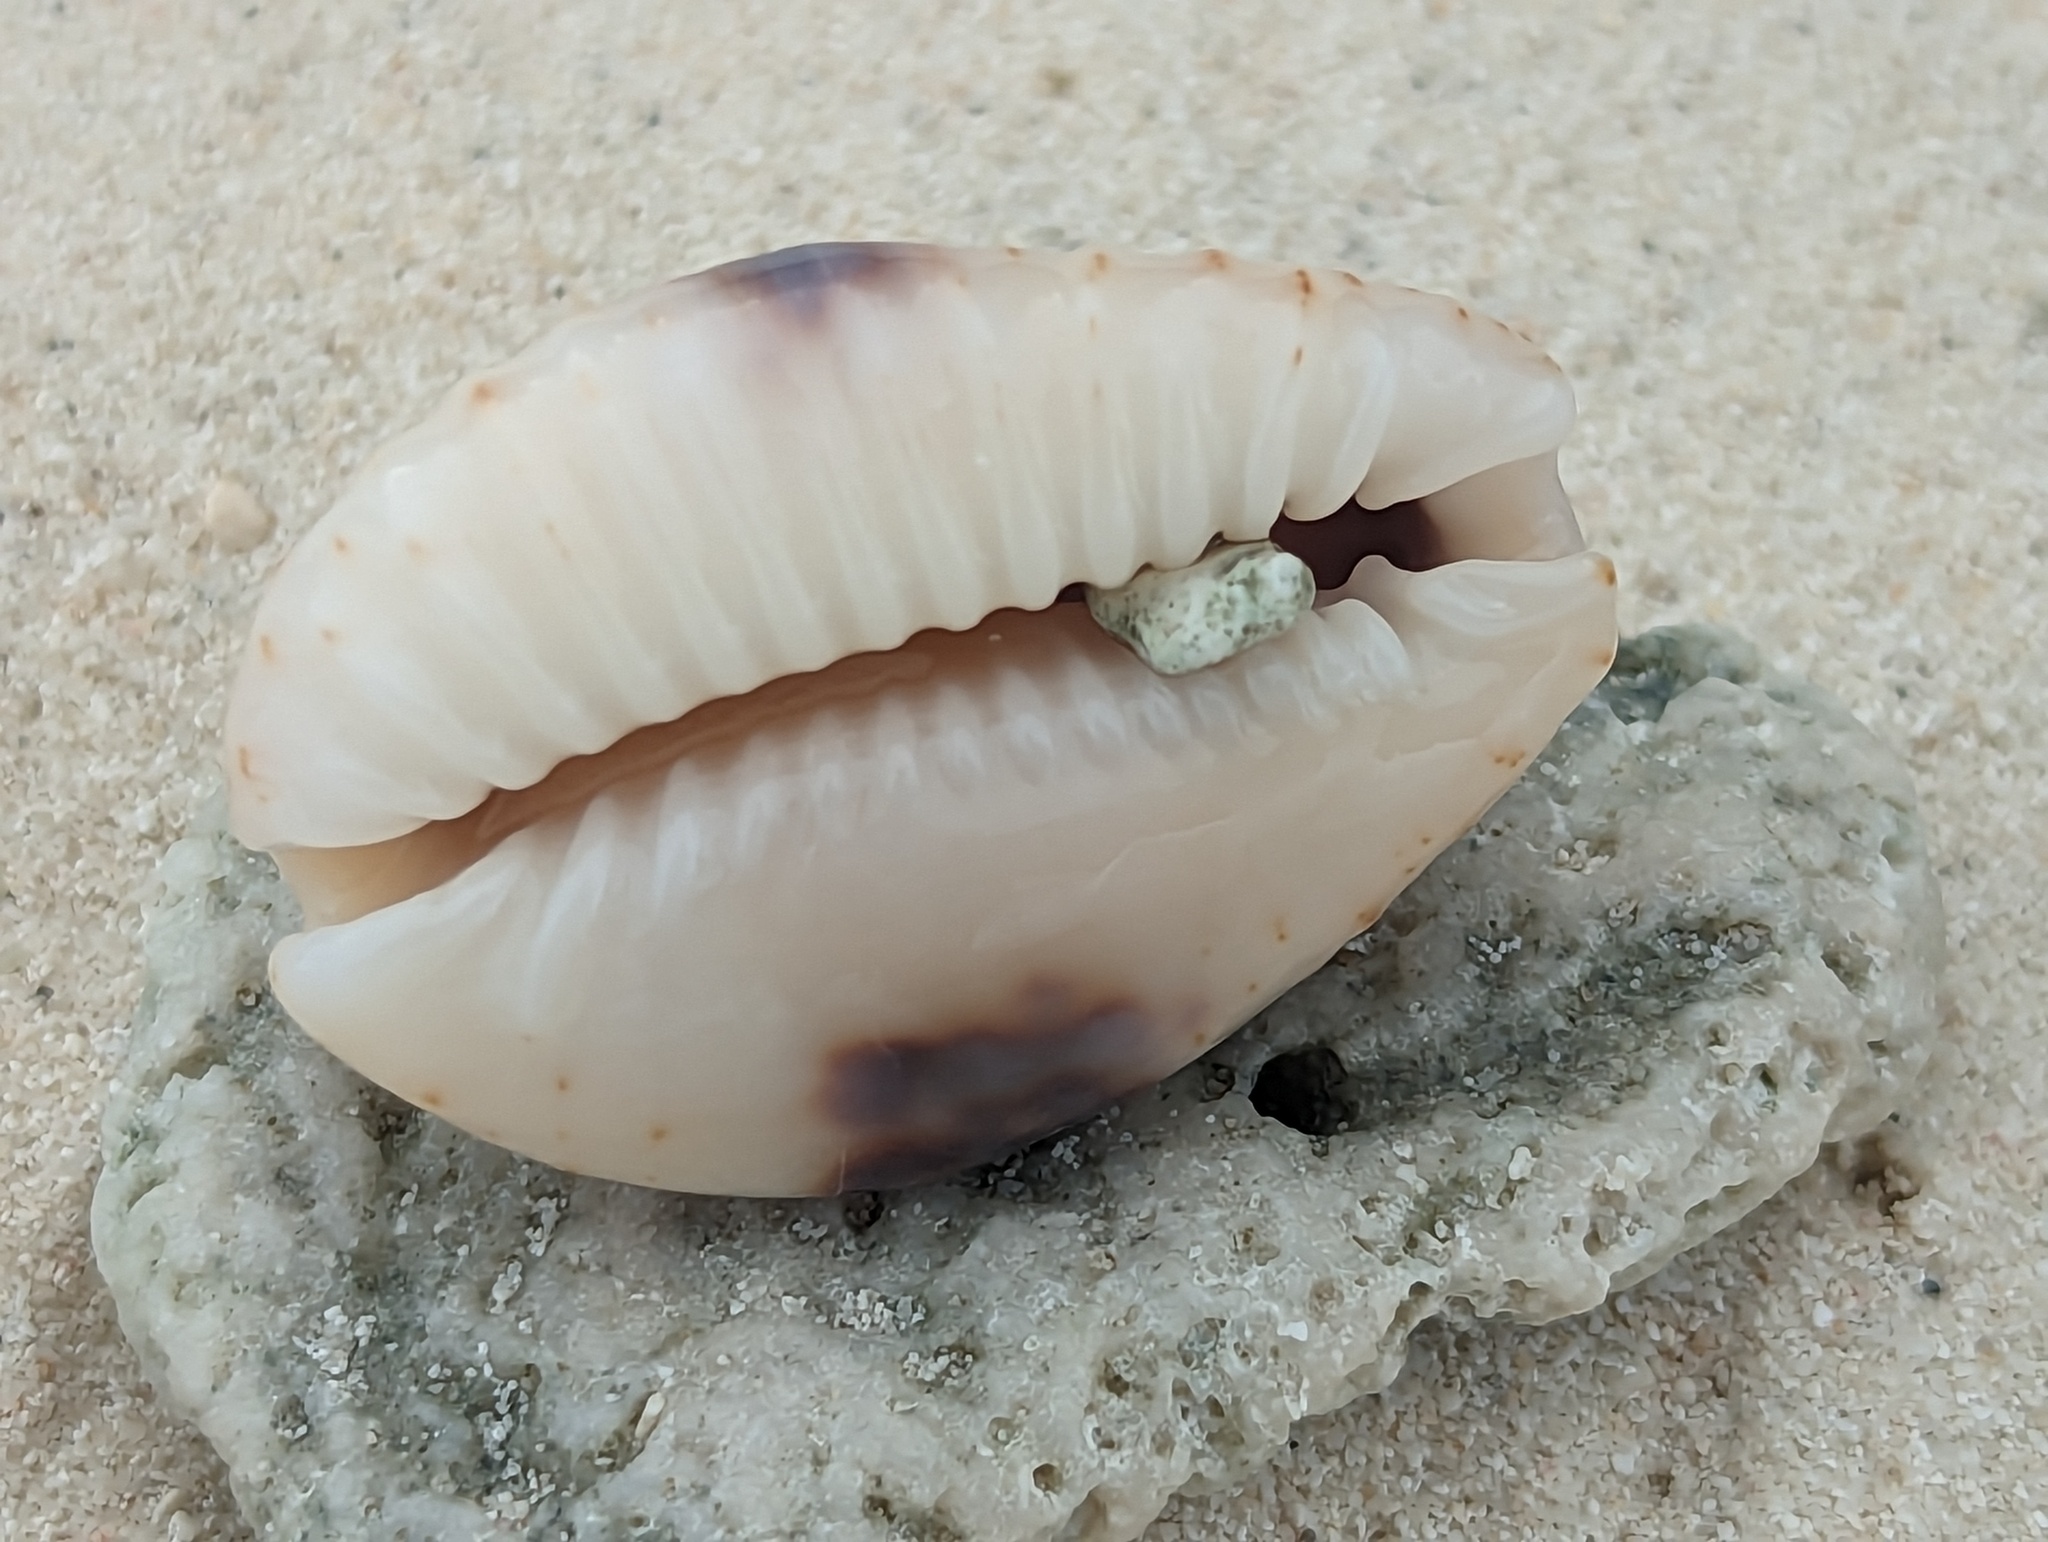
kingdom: Animalia
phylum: Mollusca
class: Gastropoda
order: Littorinimorpha
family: Cypraeidae
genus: Naria
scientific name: Naria erosa
